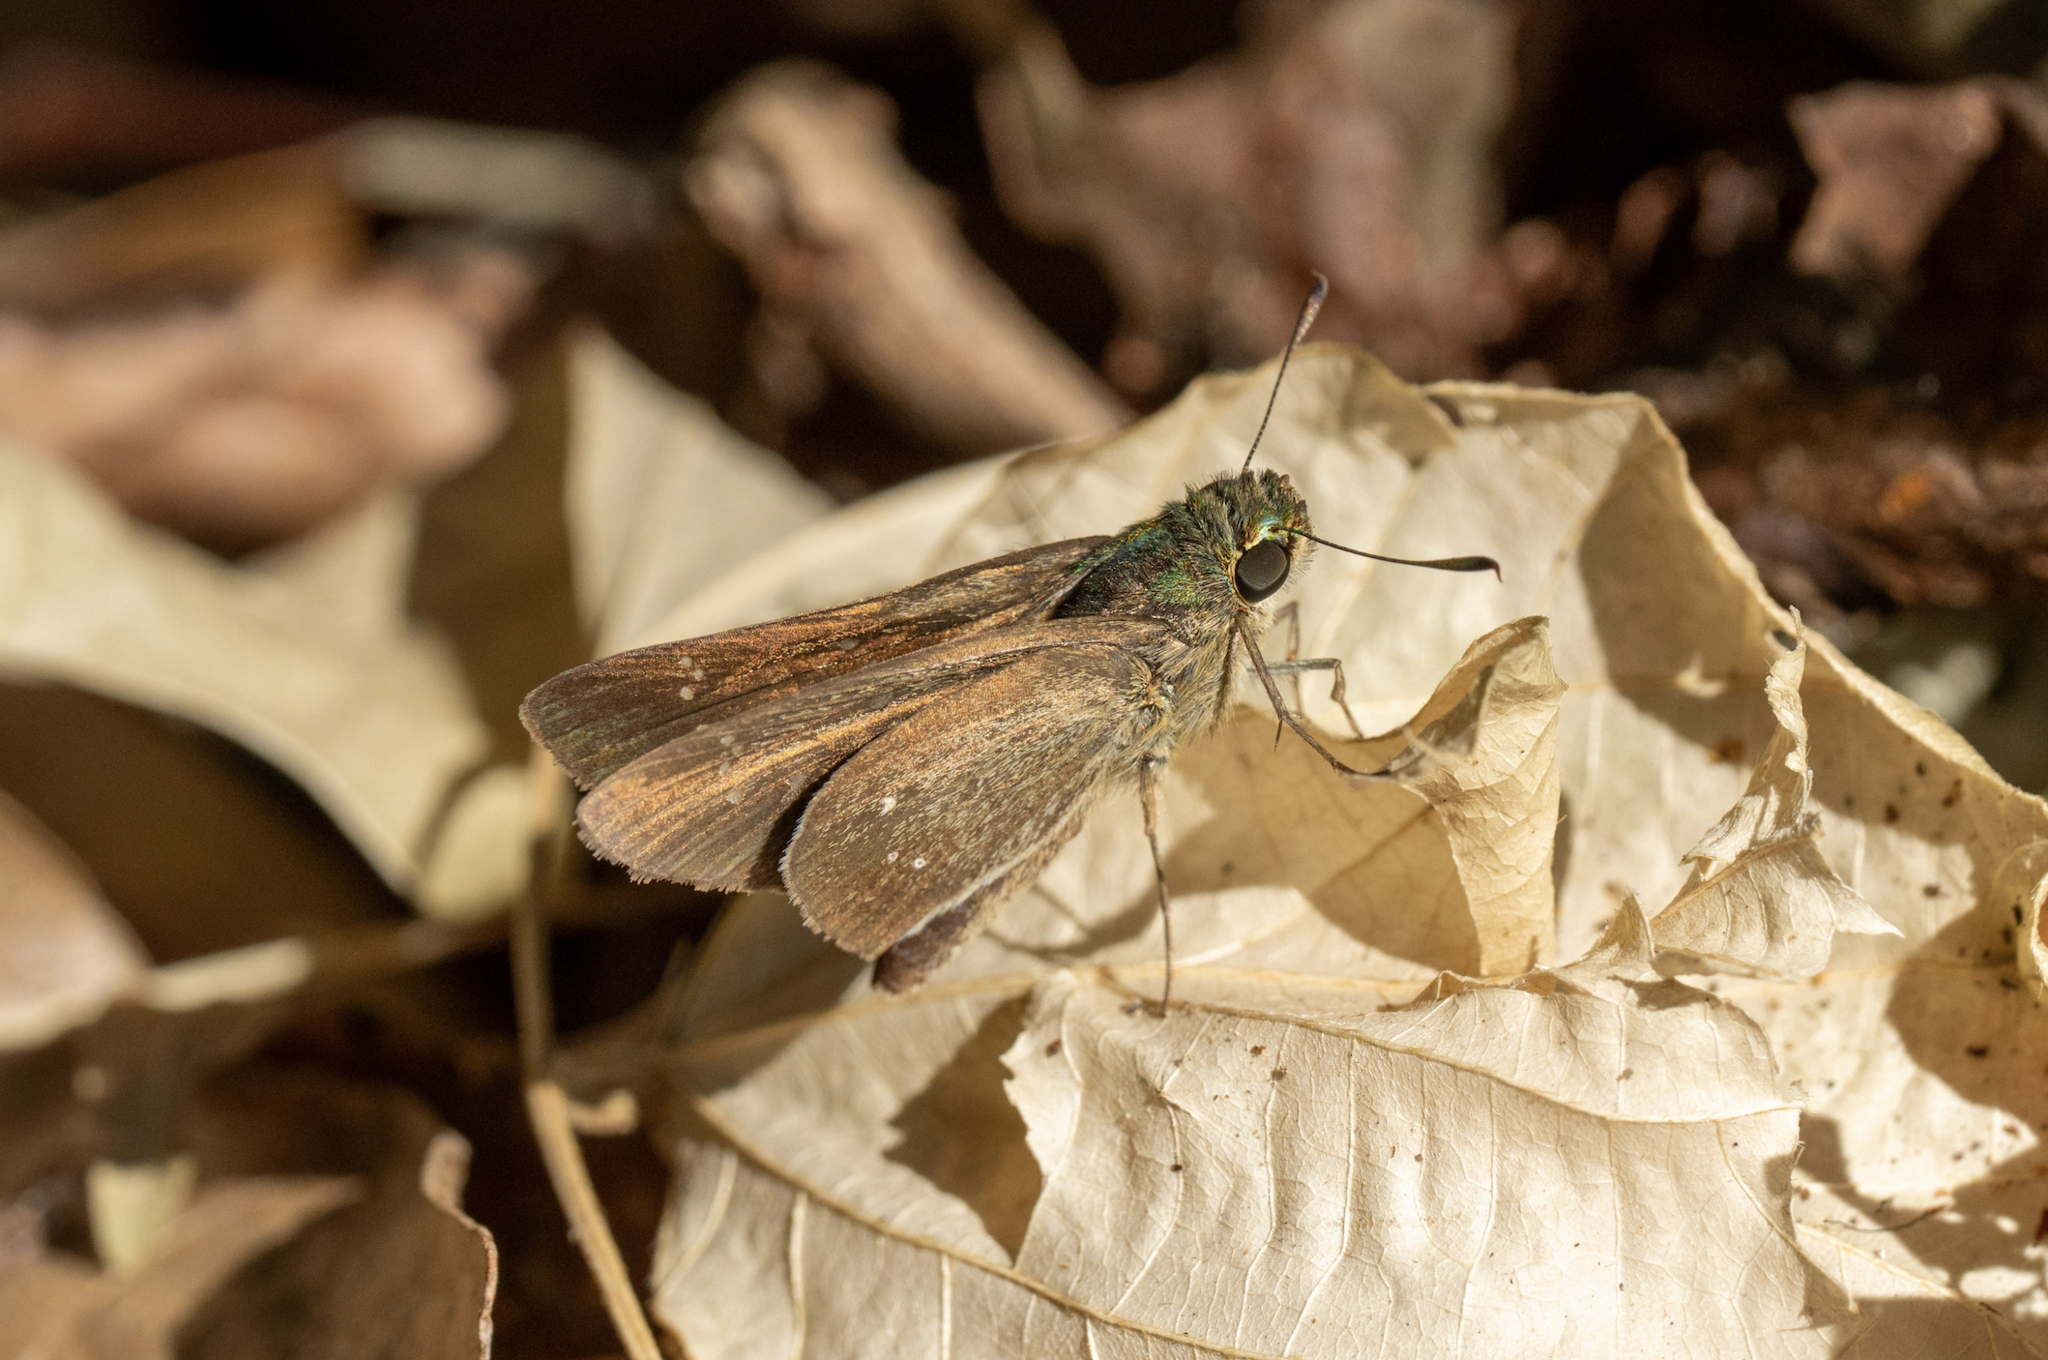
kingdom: Animalia
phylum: Arthropoda
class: Insecta
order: Lepidoptera
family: Hesperiidae
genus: Borbo
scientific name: Borbo cinnara
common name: Formosan swift
